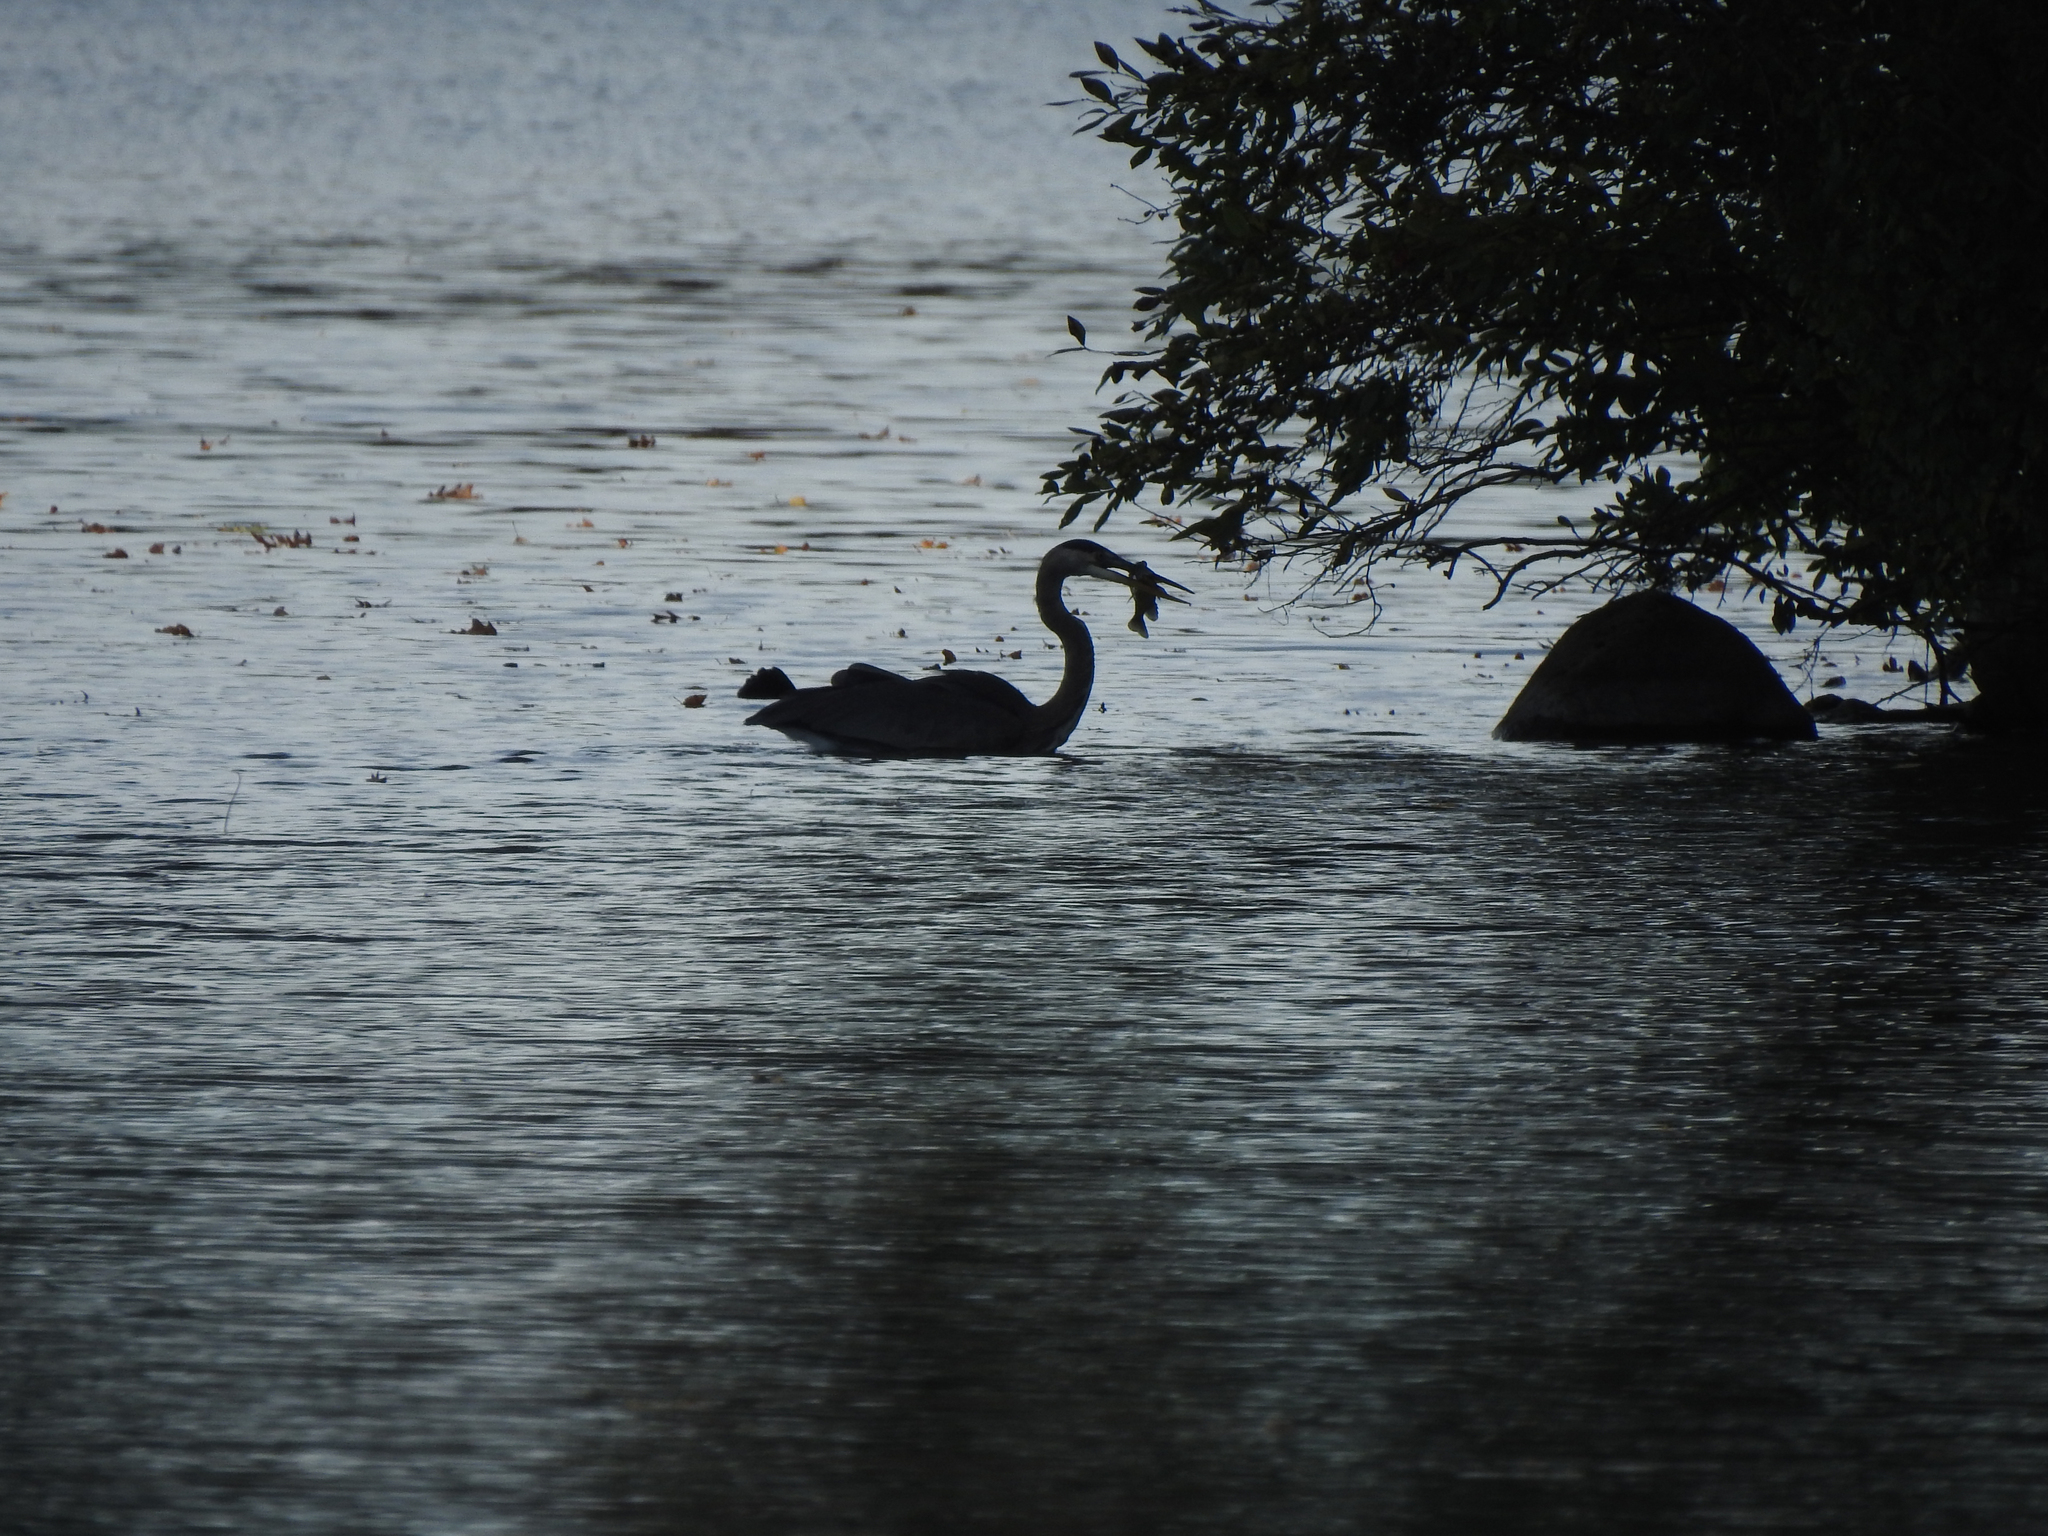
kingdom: Animalia
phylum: Chordata
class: Aves
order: Pelecaniformes
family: Ardeidae
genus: Ardea
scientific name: Ardea herodias
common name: Great blue heron
